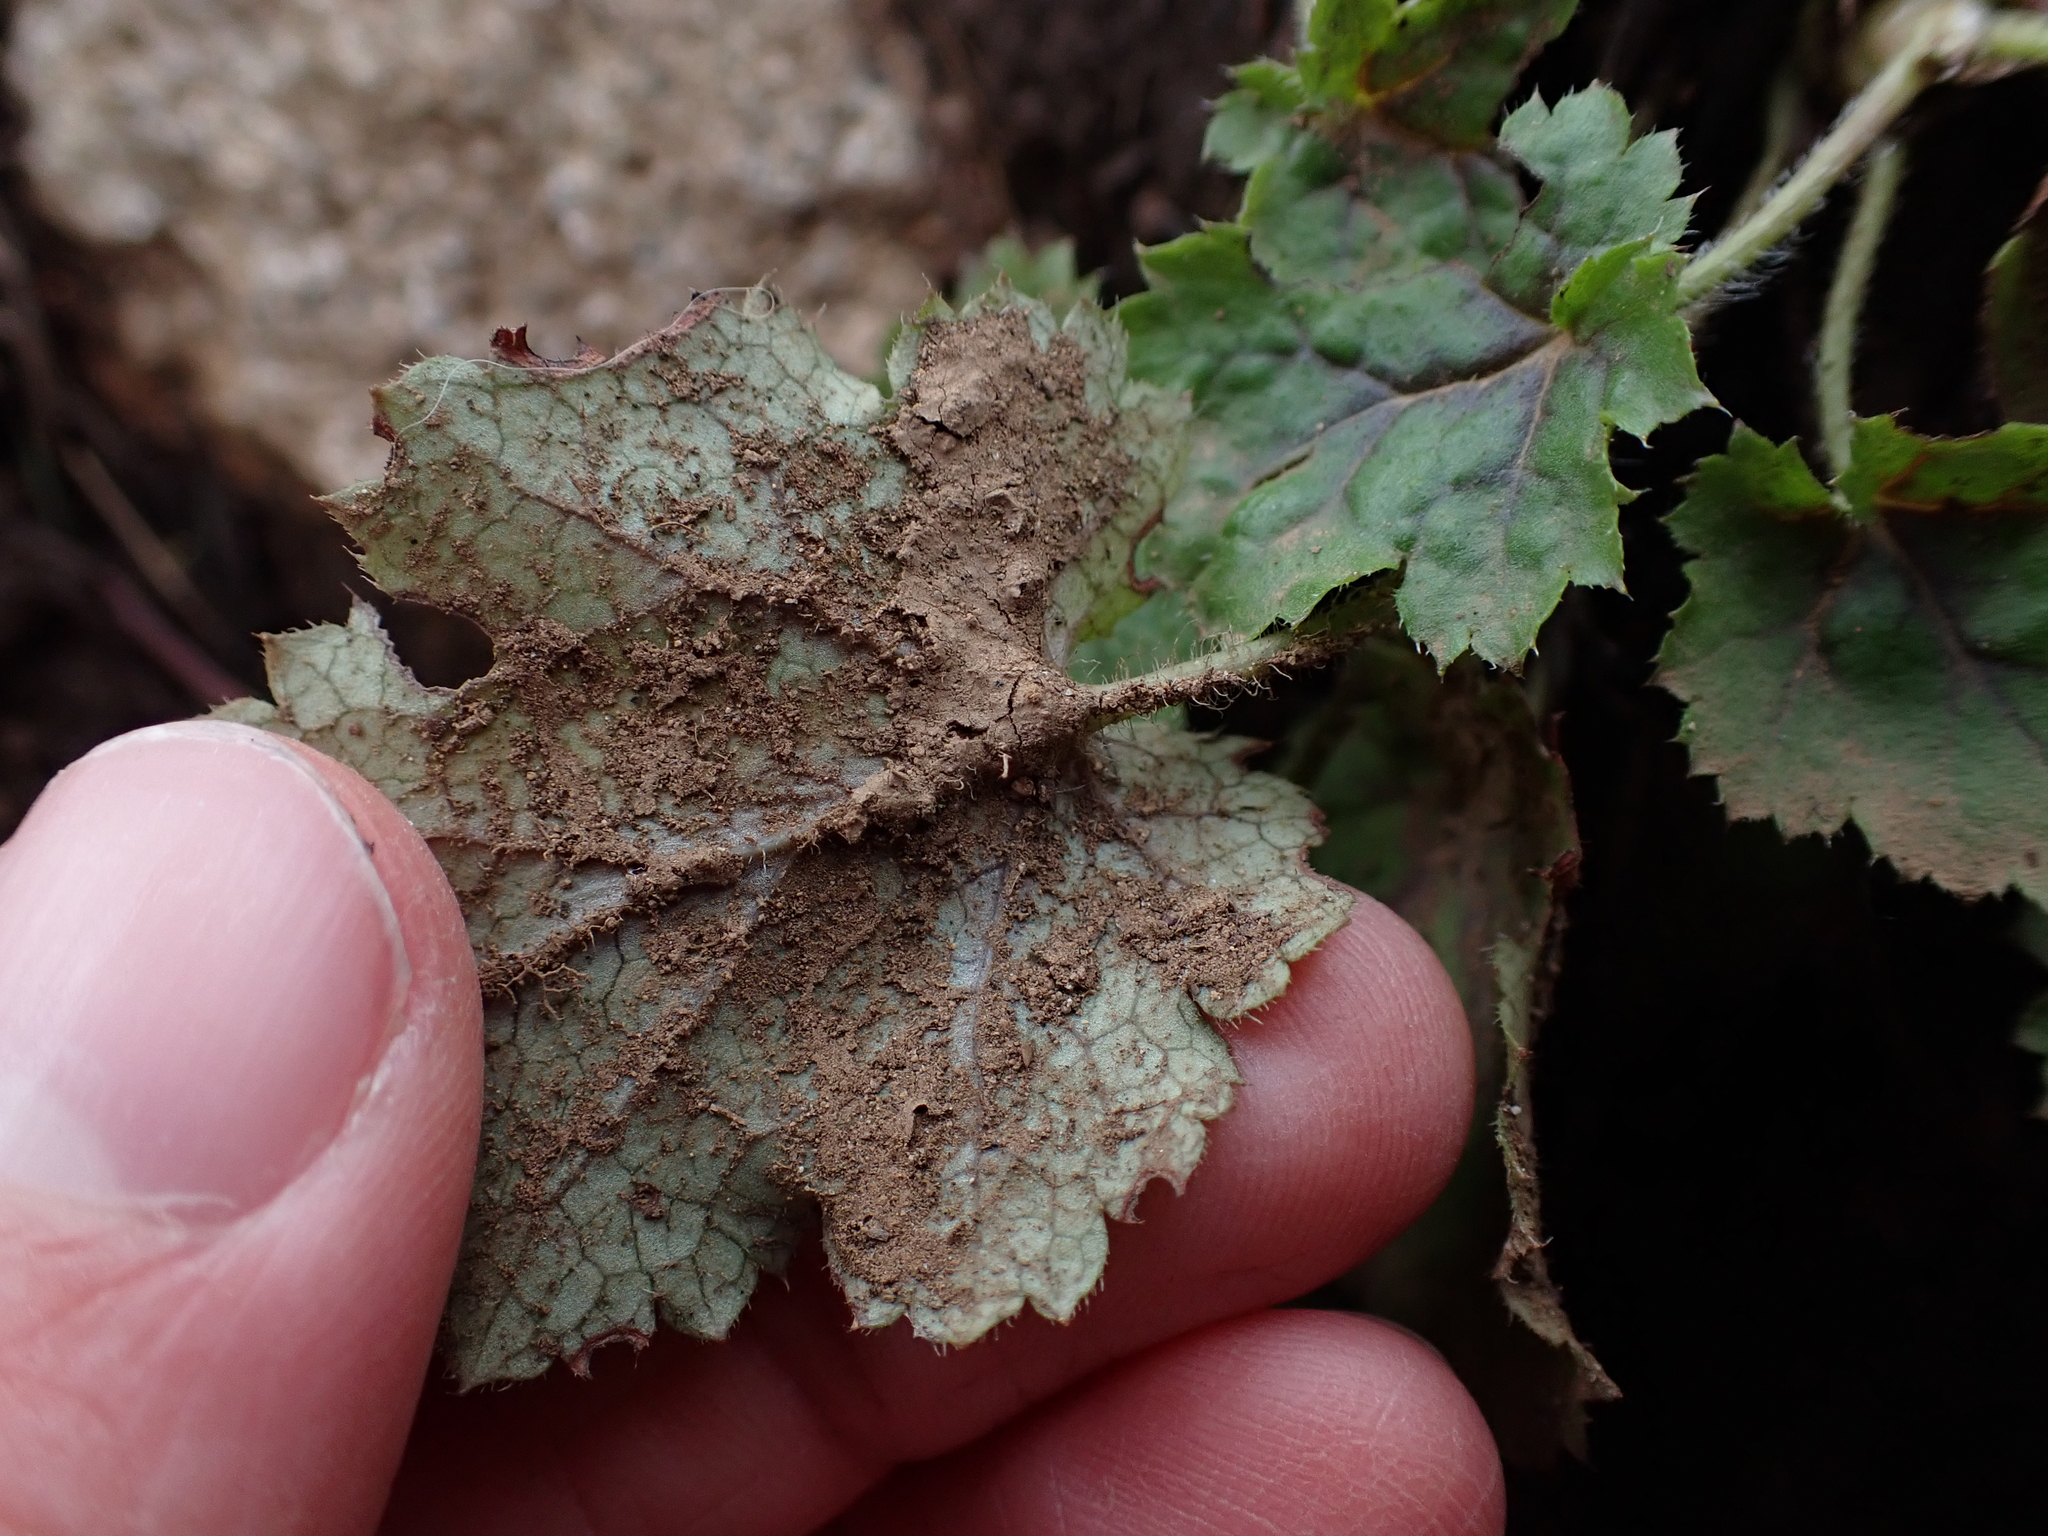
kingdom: Plantae
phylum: Tracheophyta
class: Magnoliopsida
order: Saxifragales
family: Saxifragaceae
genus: Heuchera
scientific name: Heuchera micrantha
